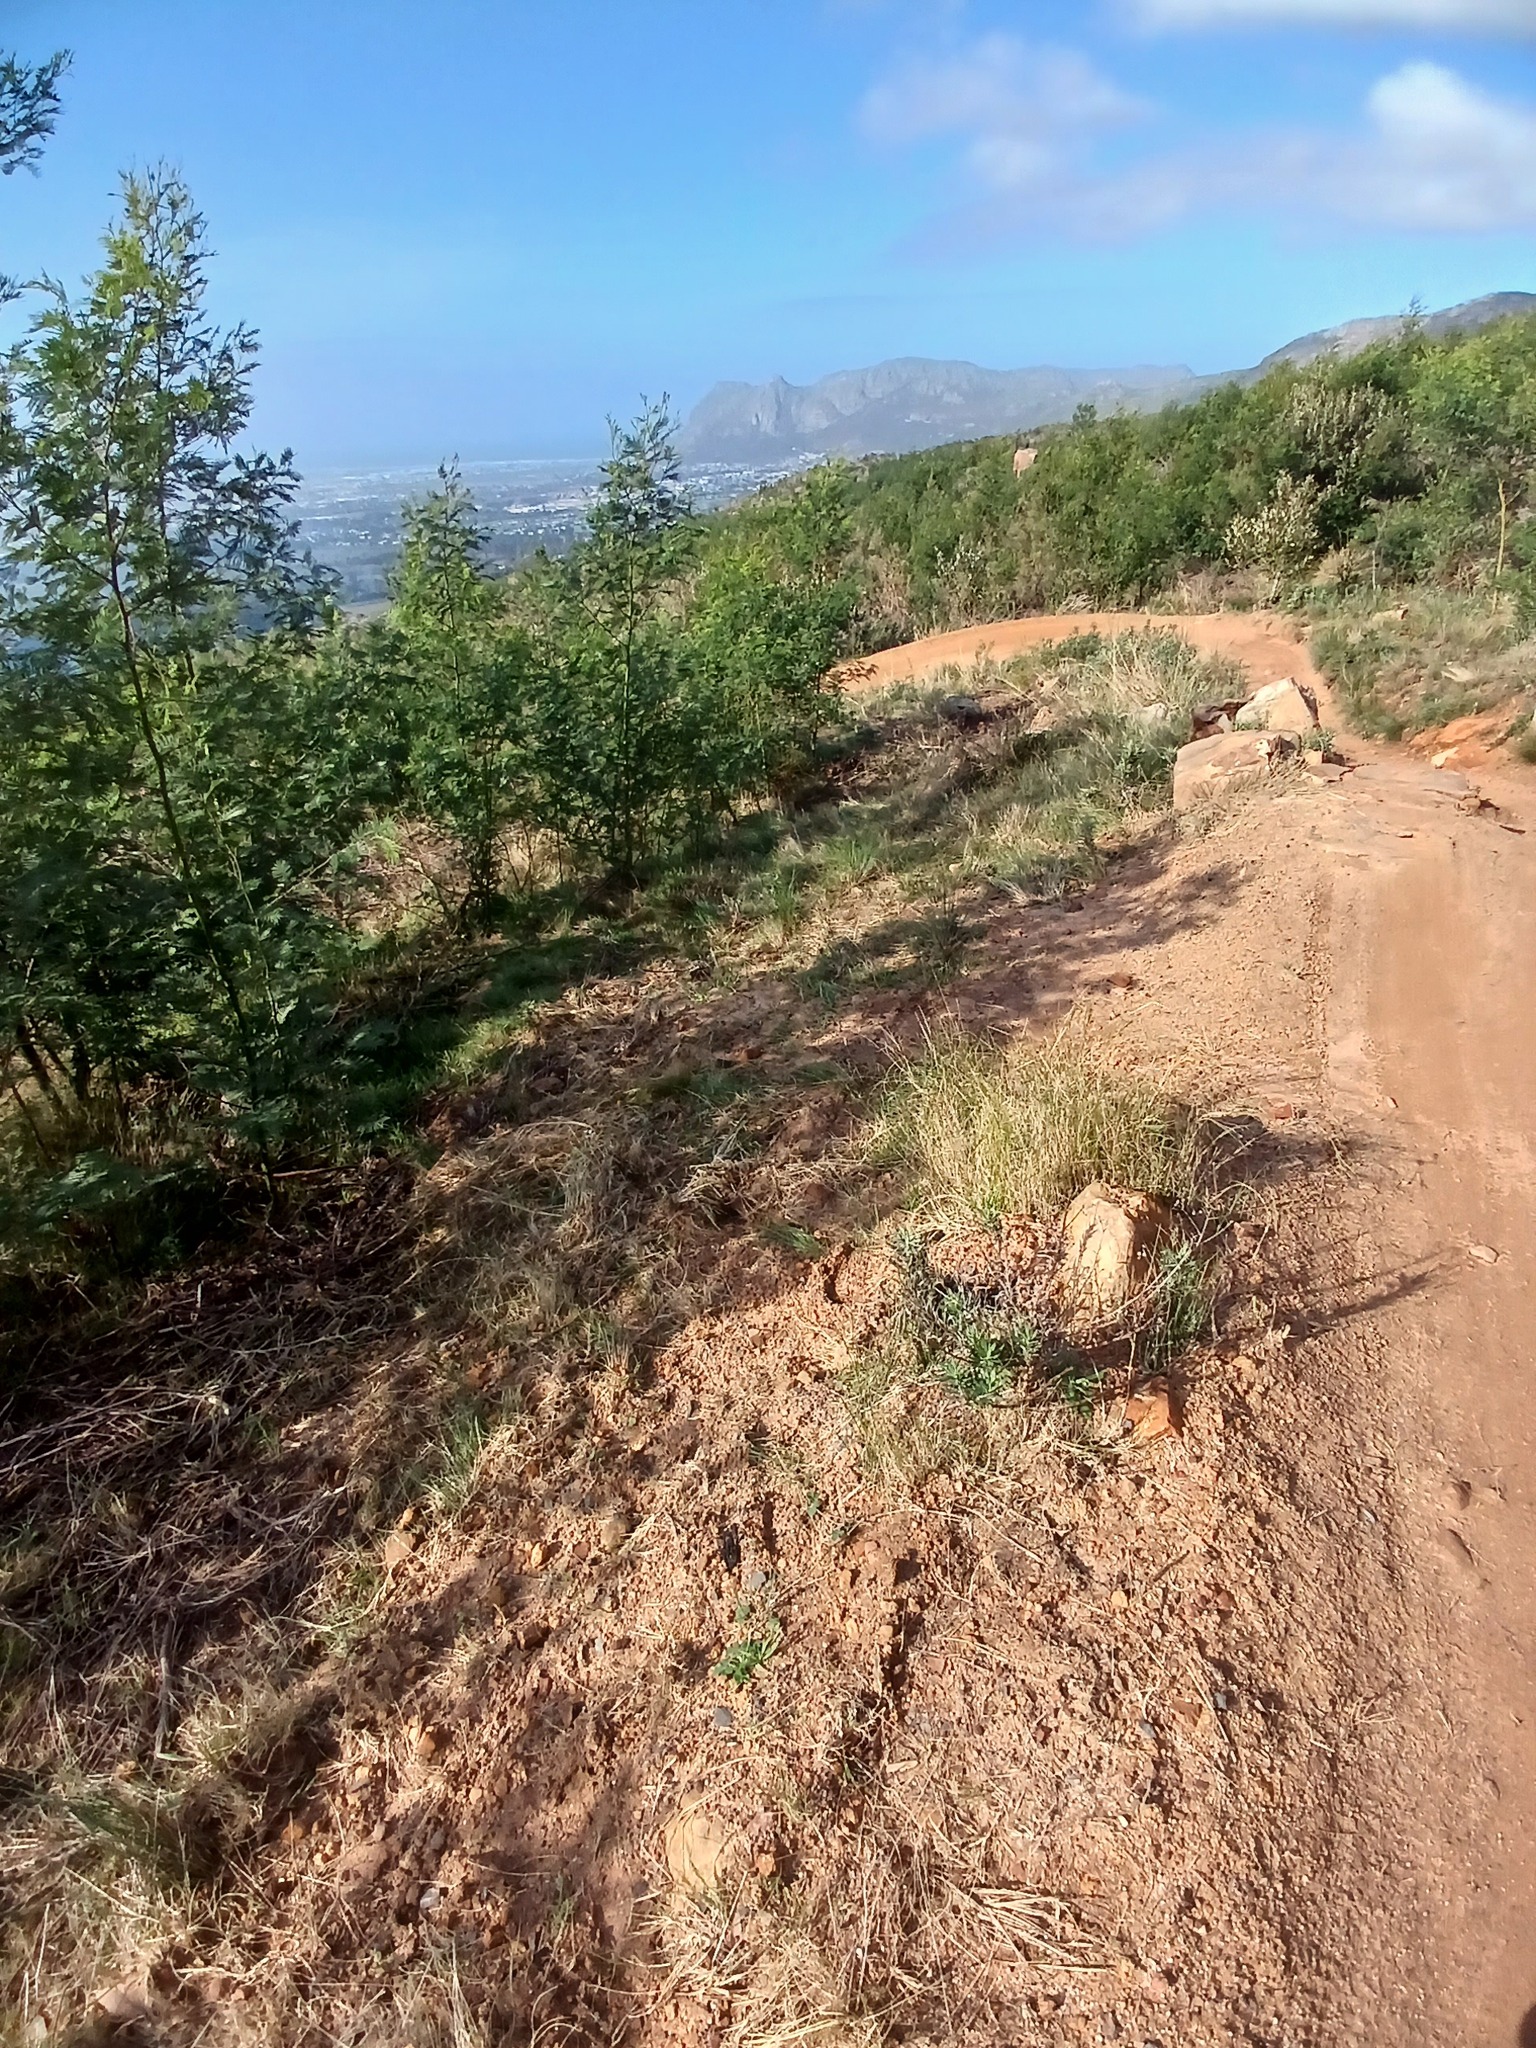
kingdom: Plantae
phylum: Tracheophyta
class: Magnoliopsida
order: Fabales
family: Fabaceae
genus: Acacia
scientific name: Acacia mearnsii
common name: Black wattle
